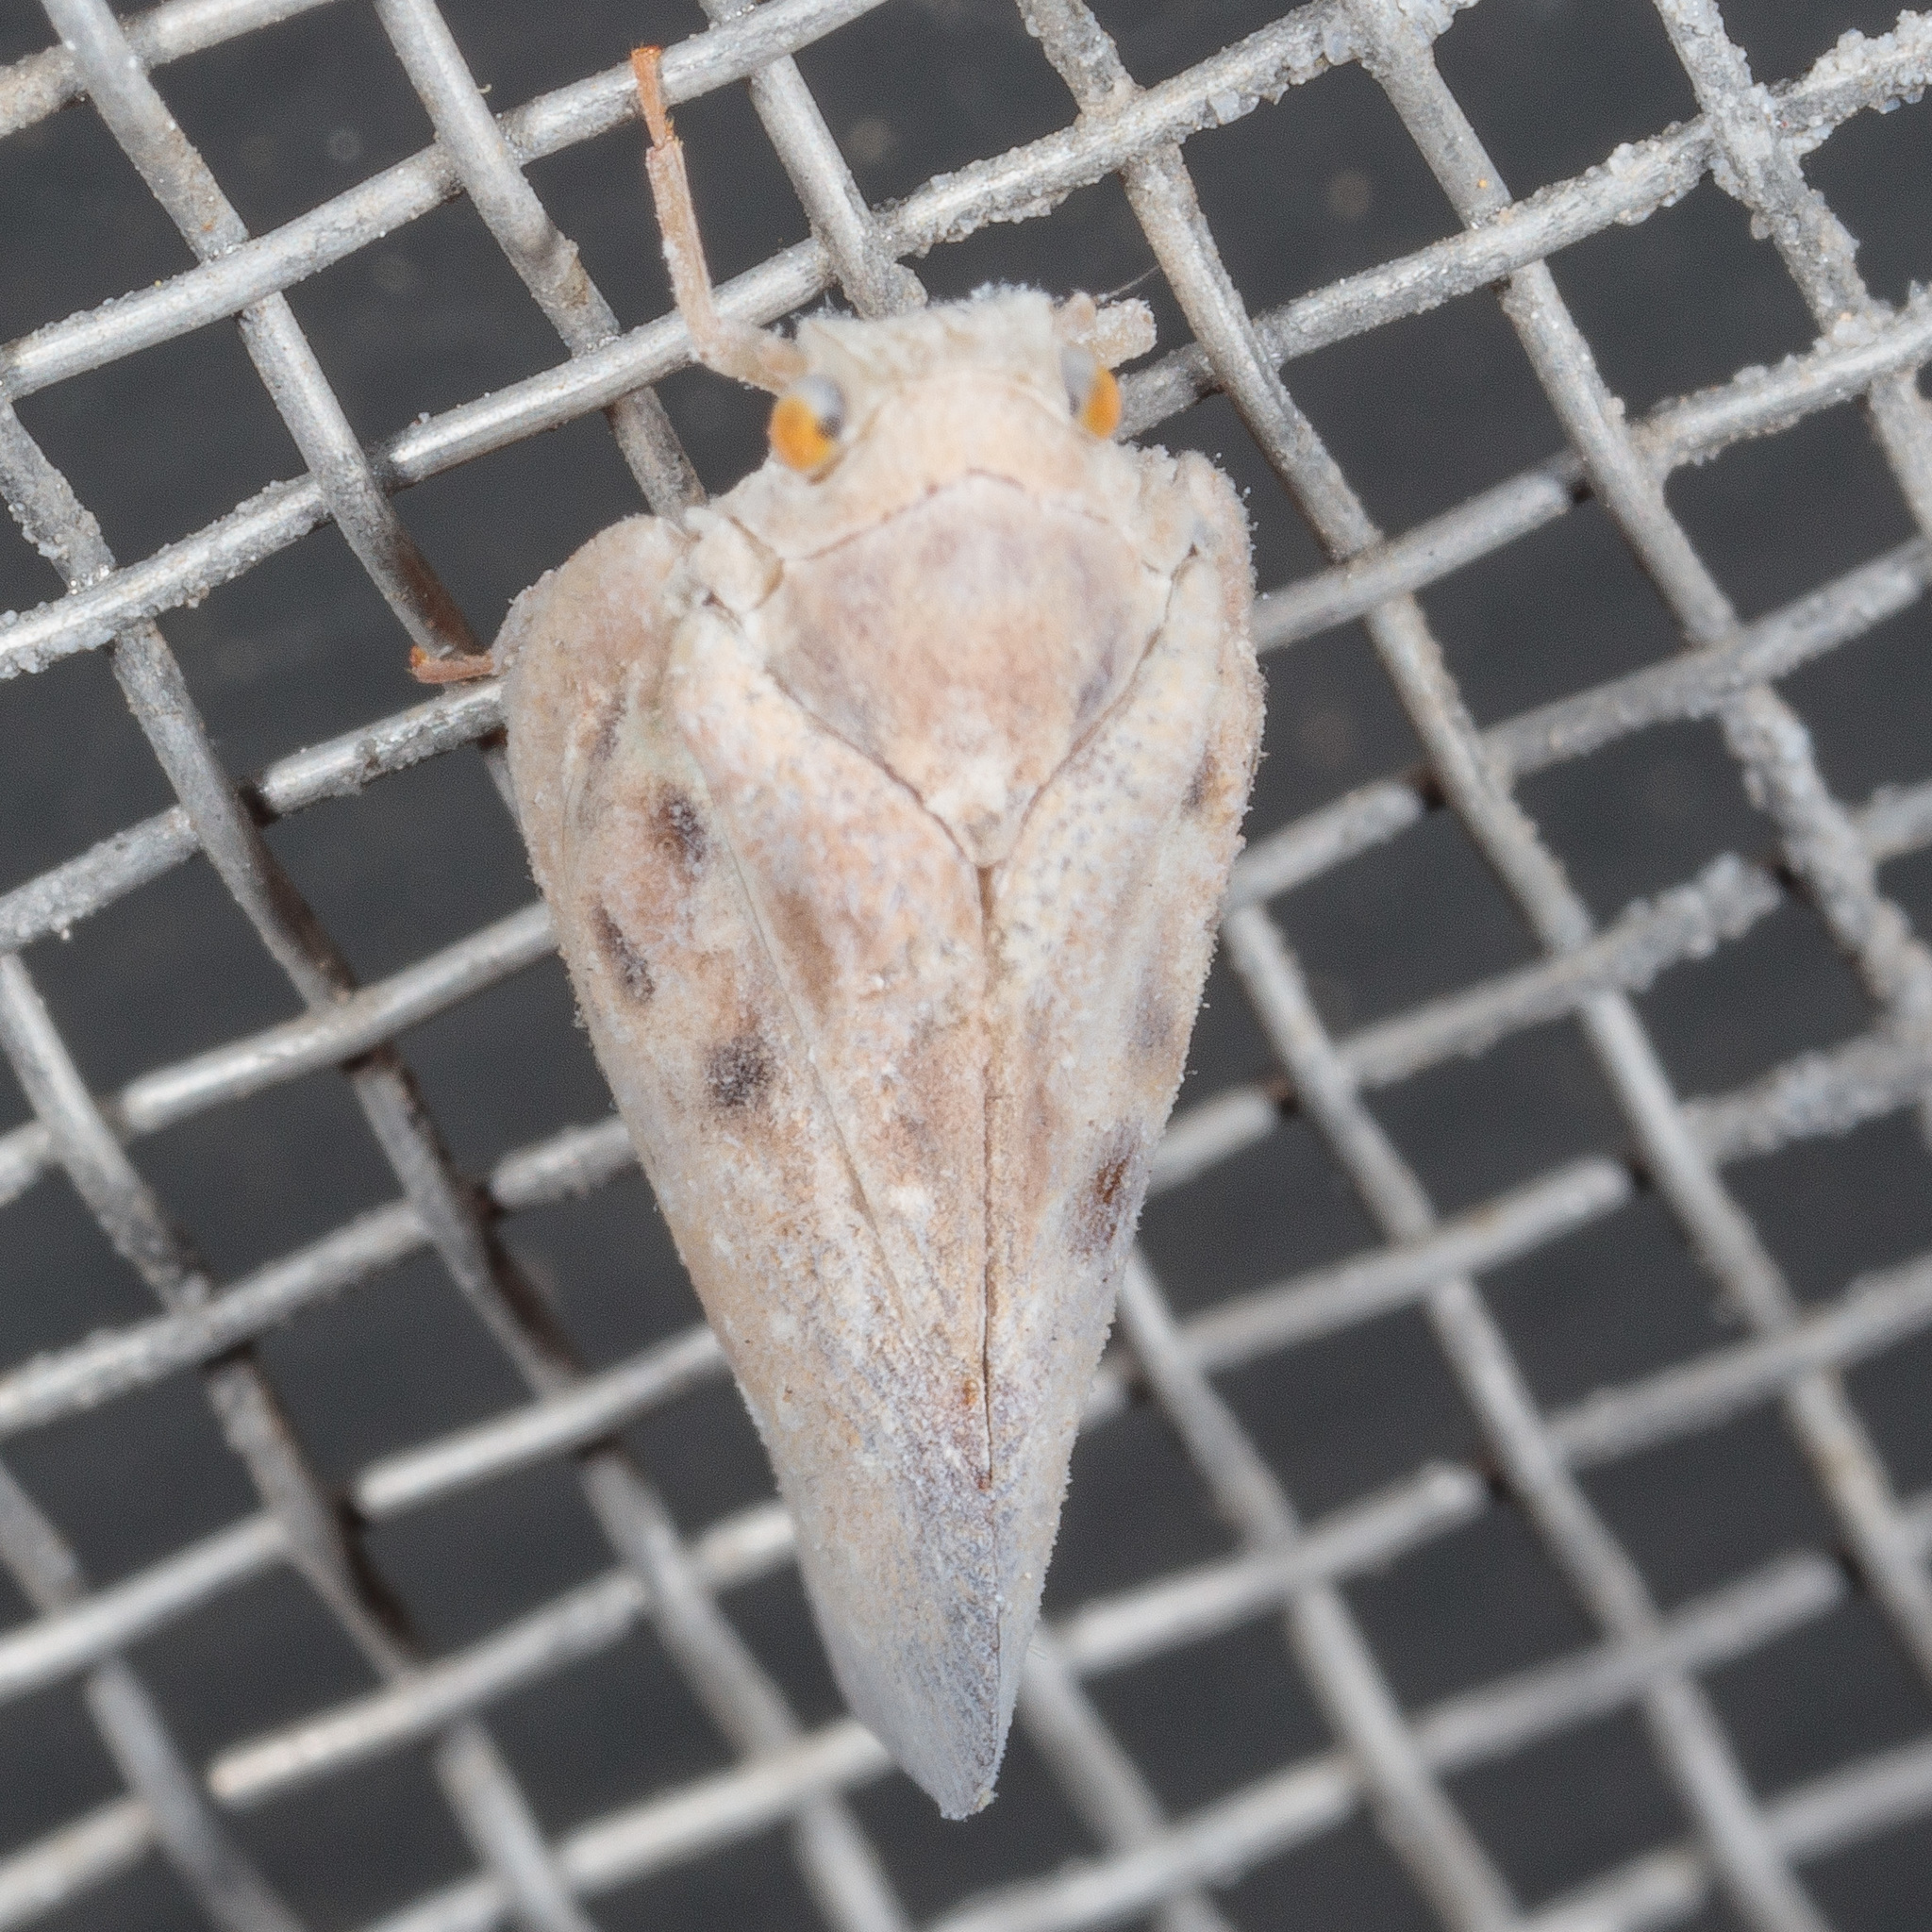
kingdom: Animalia
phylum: Arthropoda
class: Insecta
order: Hemiptera
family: Flatidae
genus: Metcalfa
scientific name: Metcalfa pruinosa
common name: Citrus flatid planthopper
